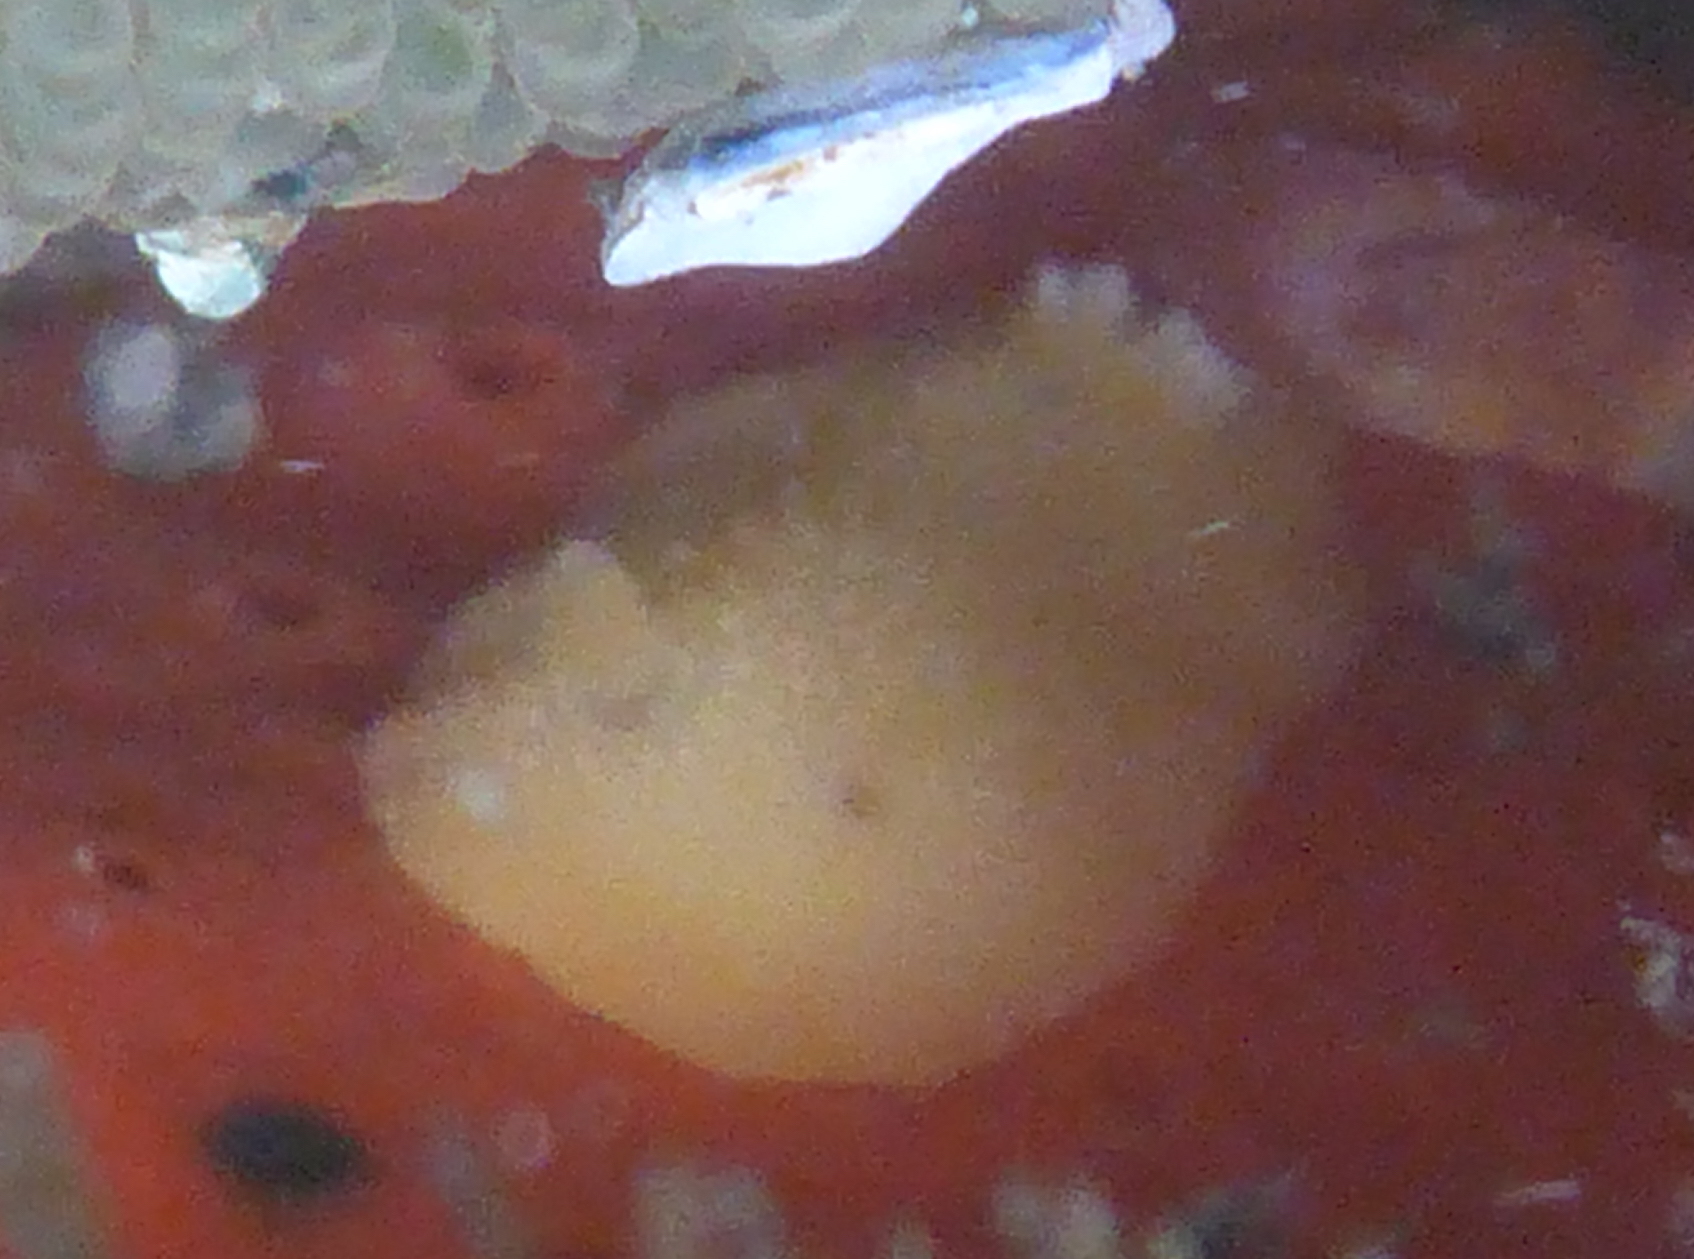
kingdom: Animalia
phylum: Mollusca
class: Gastropoda
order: Nudibranchia
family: Cadlinidae
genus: Cadlina
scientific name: Cadlina modesta
